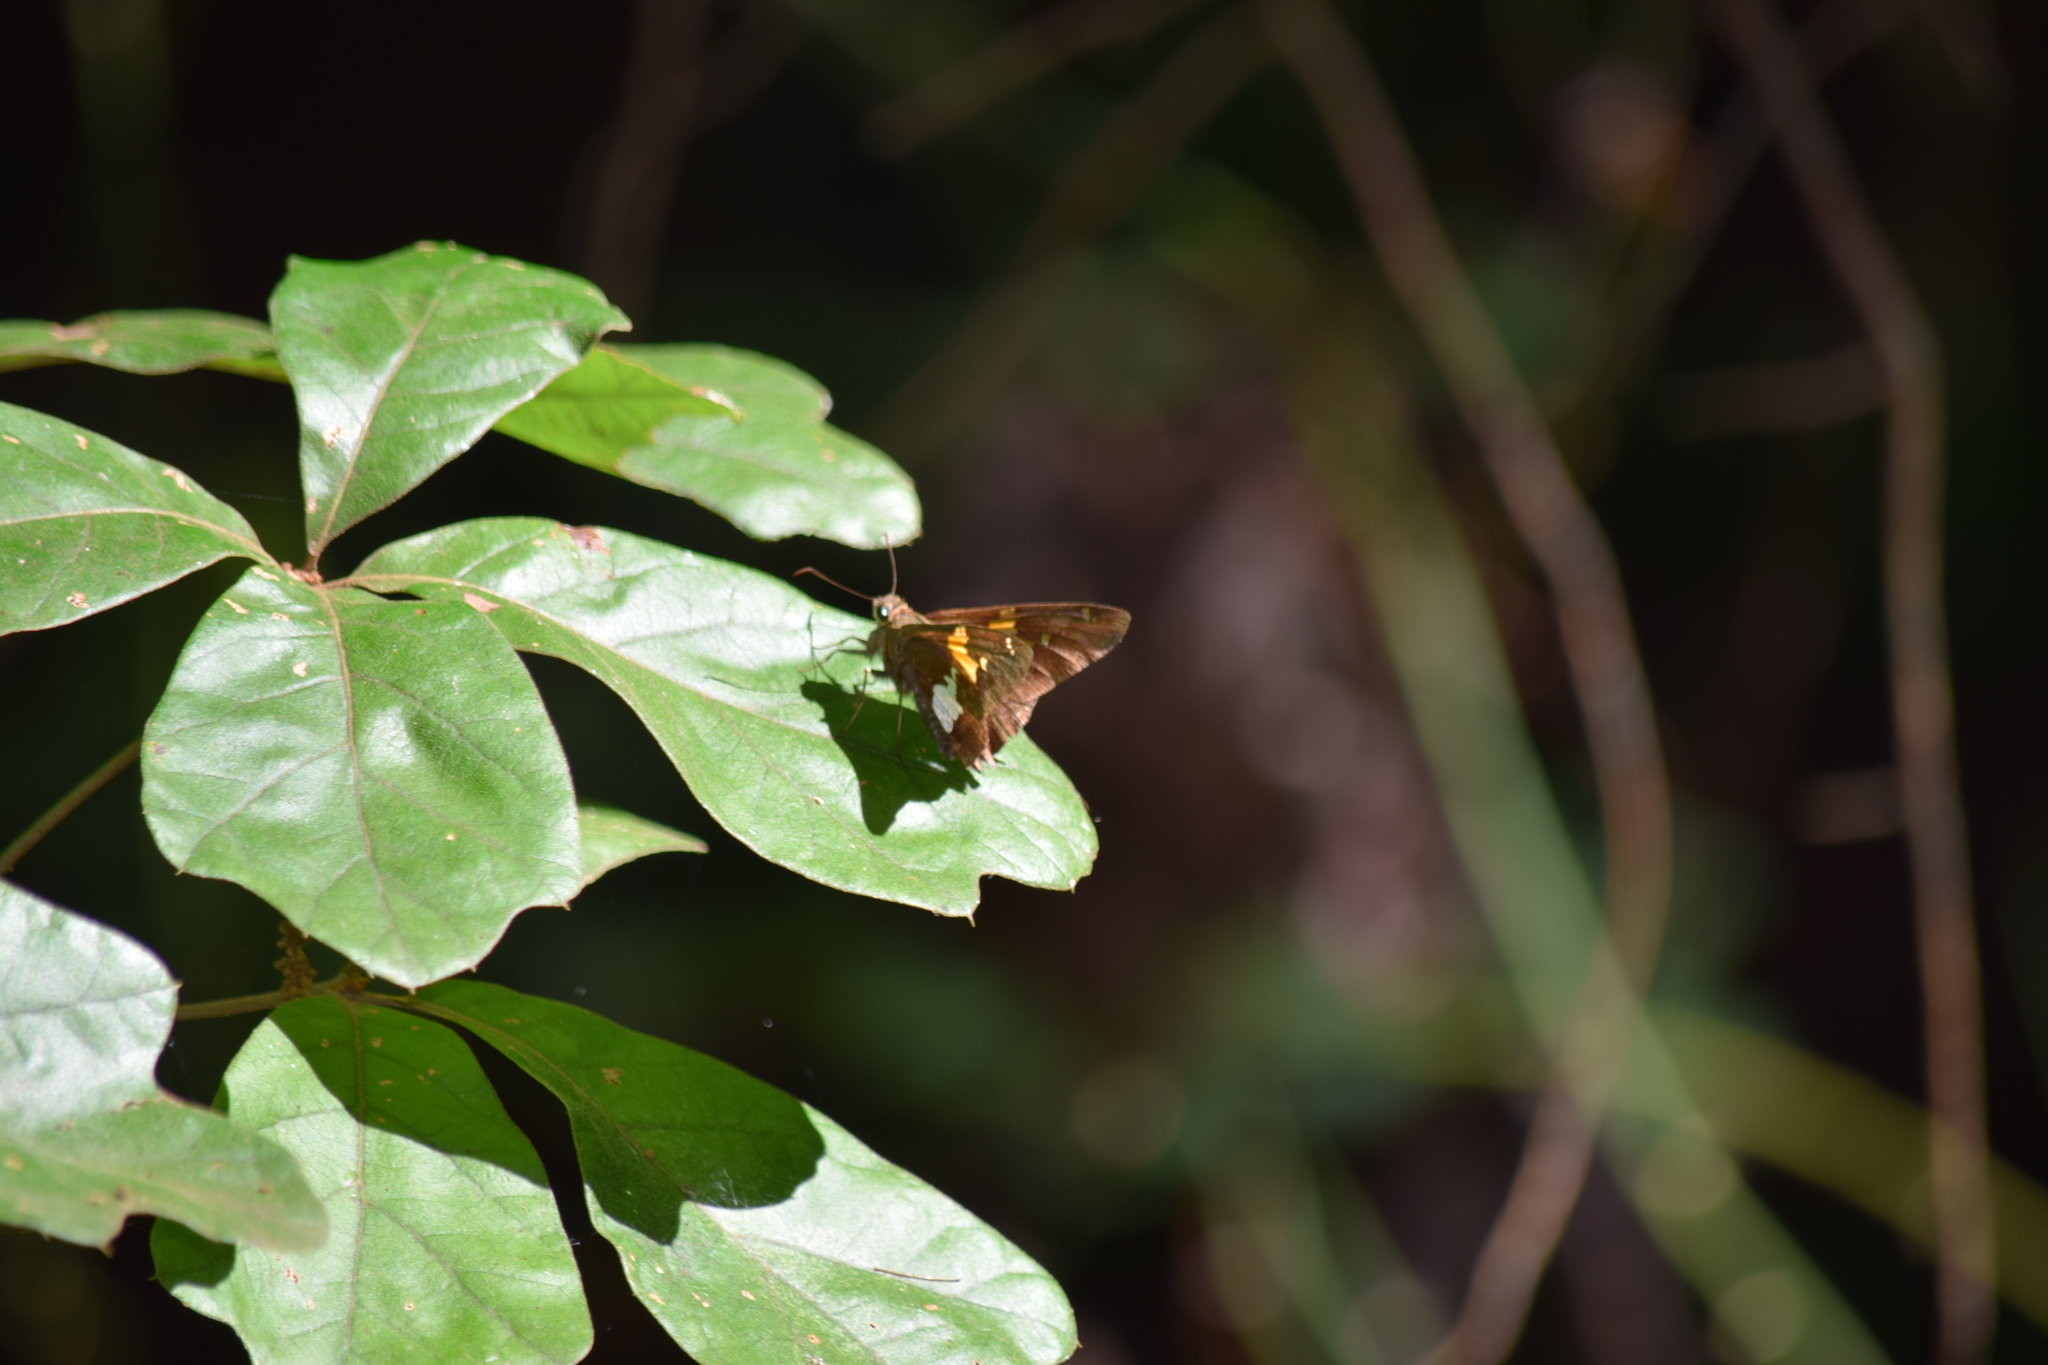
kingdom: Animalia
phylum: Arthropoda
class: Insecta
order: Lepidoptera
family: Hesperiidae
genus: Epargyreus
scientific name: Epargyreus clarus
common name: Silver-spotted skipper
